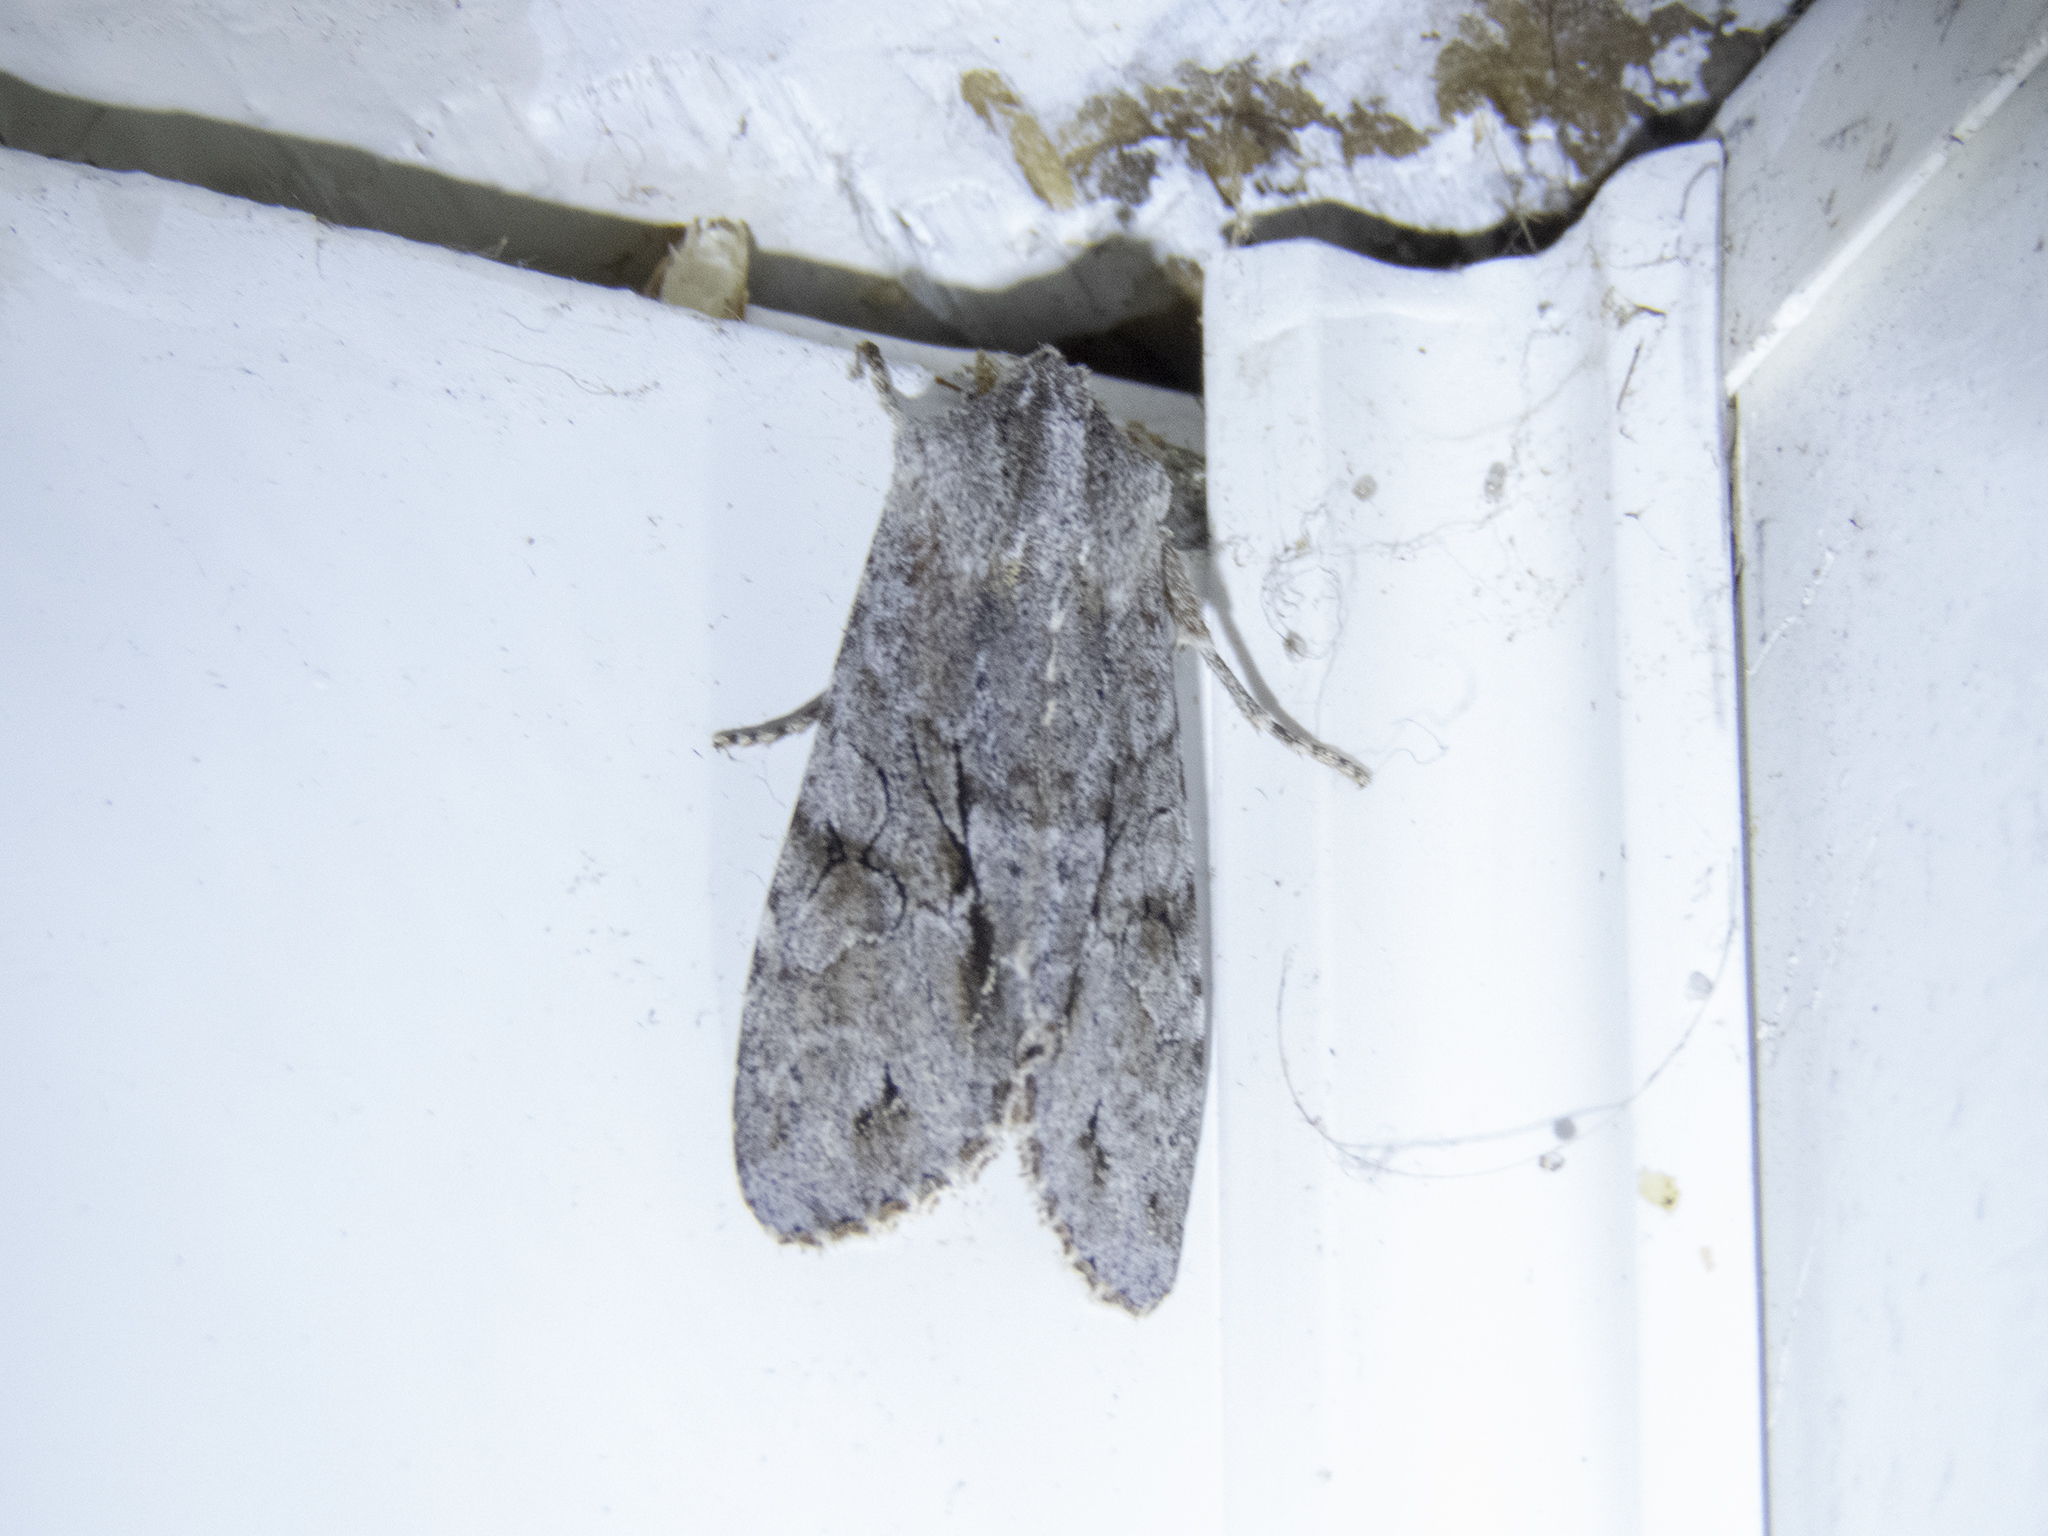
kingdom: Animalia
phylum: Arthropoda
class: Insecta
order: Lepidoptera
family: Noctuidae
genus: Ichneutica
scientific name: Ichneutica
